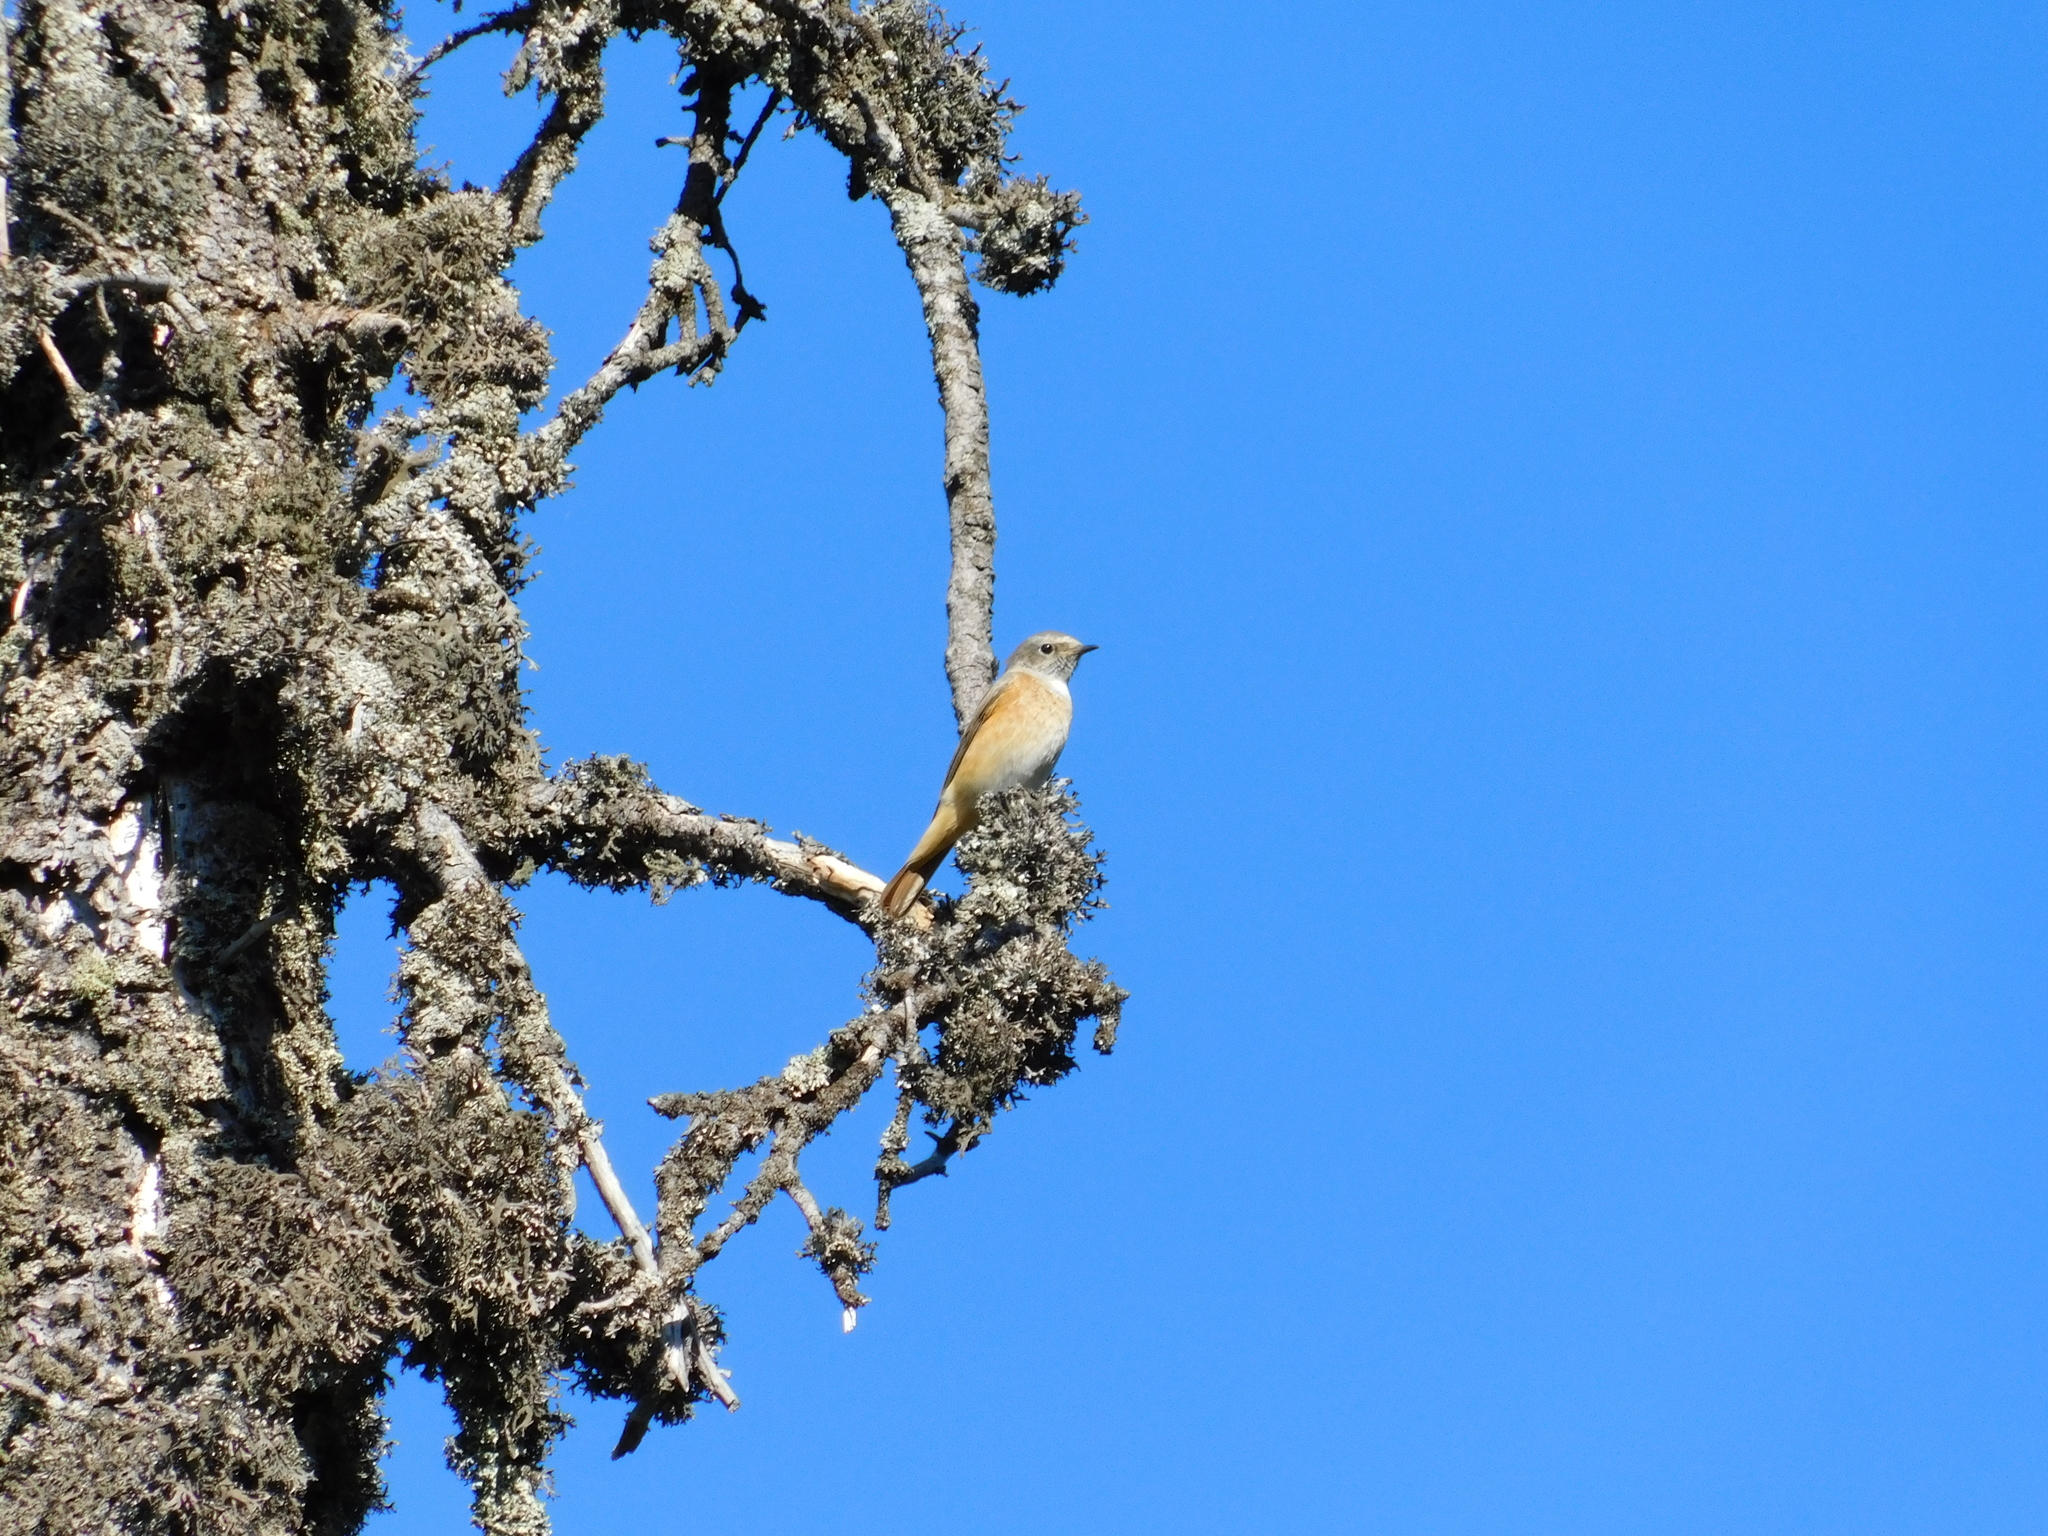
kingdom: Animalia
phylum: Chordata
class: Aves
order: Passeriformes
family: Muscicapidae
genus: Phoenicurus
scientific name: Phoenicurus phoenicurus
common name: Common redstart
